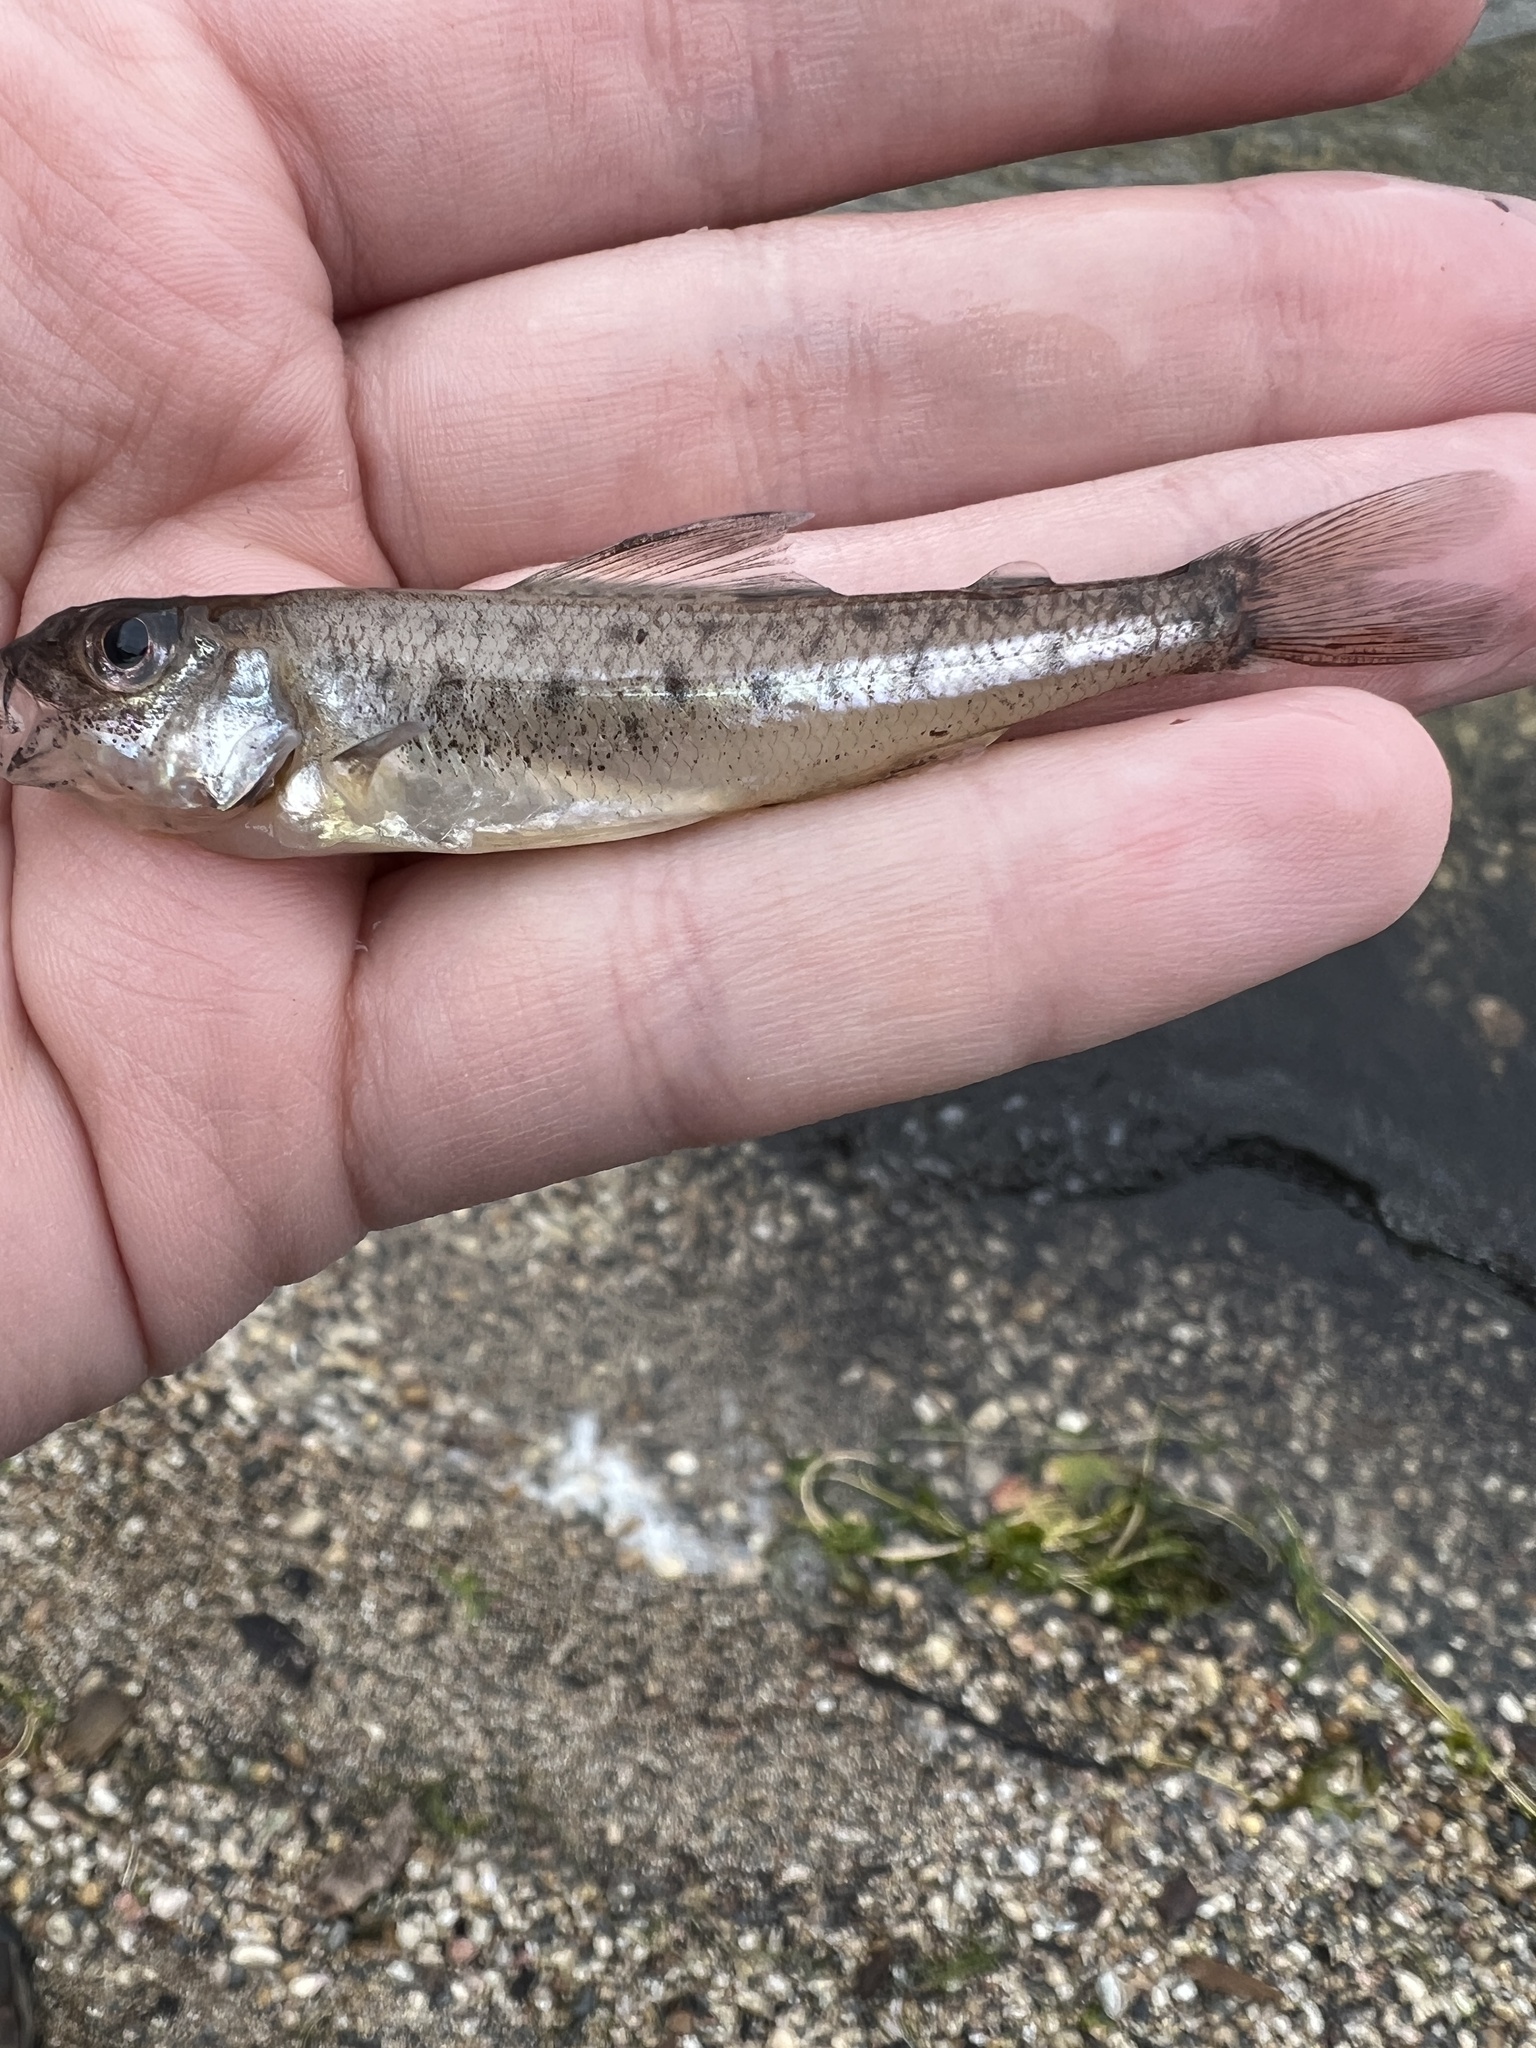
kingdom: Animalia
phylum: Chordata
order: Percopsiformes
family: Percopsidae
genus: Percopsis
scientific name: Percopsis omiscomaycus
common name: Trout-perch
